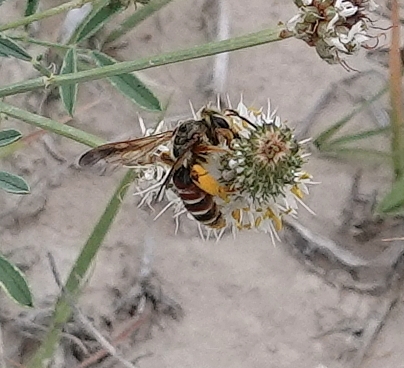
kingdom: Animalia
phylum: Arthropoda
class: Insecta
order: Hymenoptera
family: Andrenidae
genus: Andrena
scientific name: Andrena prunorum
